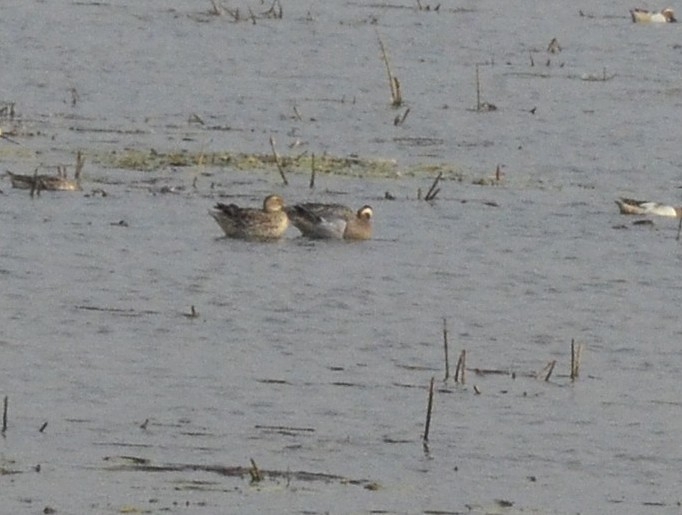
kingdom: Animalia
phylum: Chordata
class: Aves
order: Anseriformes
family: Anatidae
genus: Spatula
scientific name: Spatula querquedula
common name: Garganey
